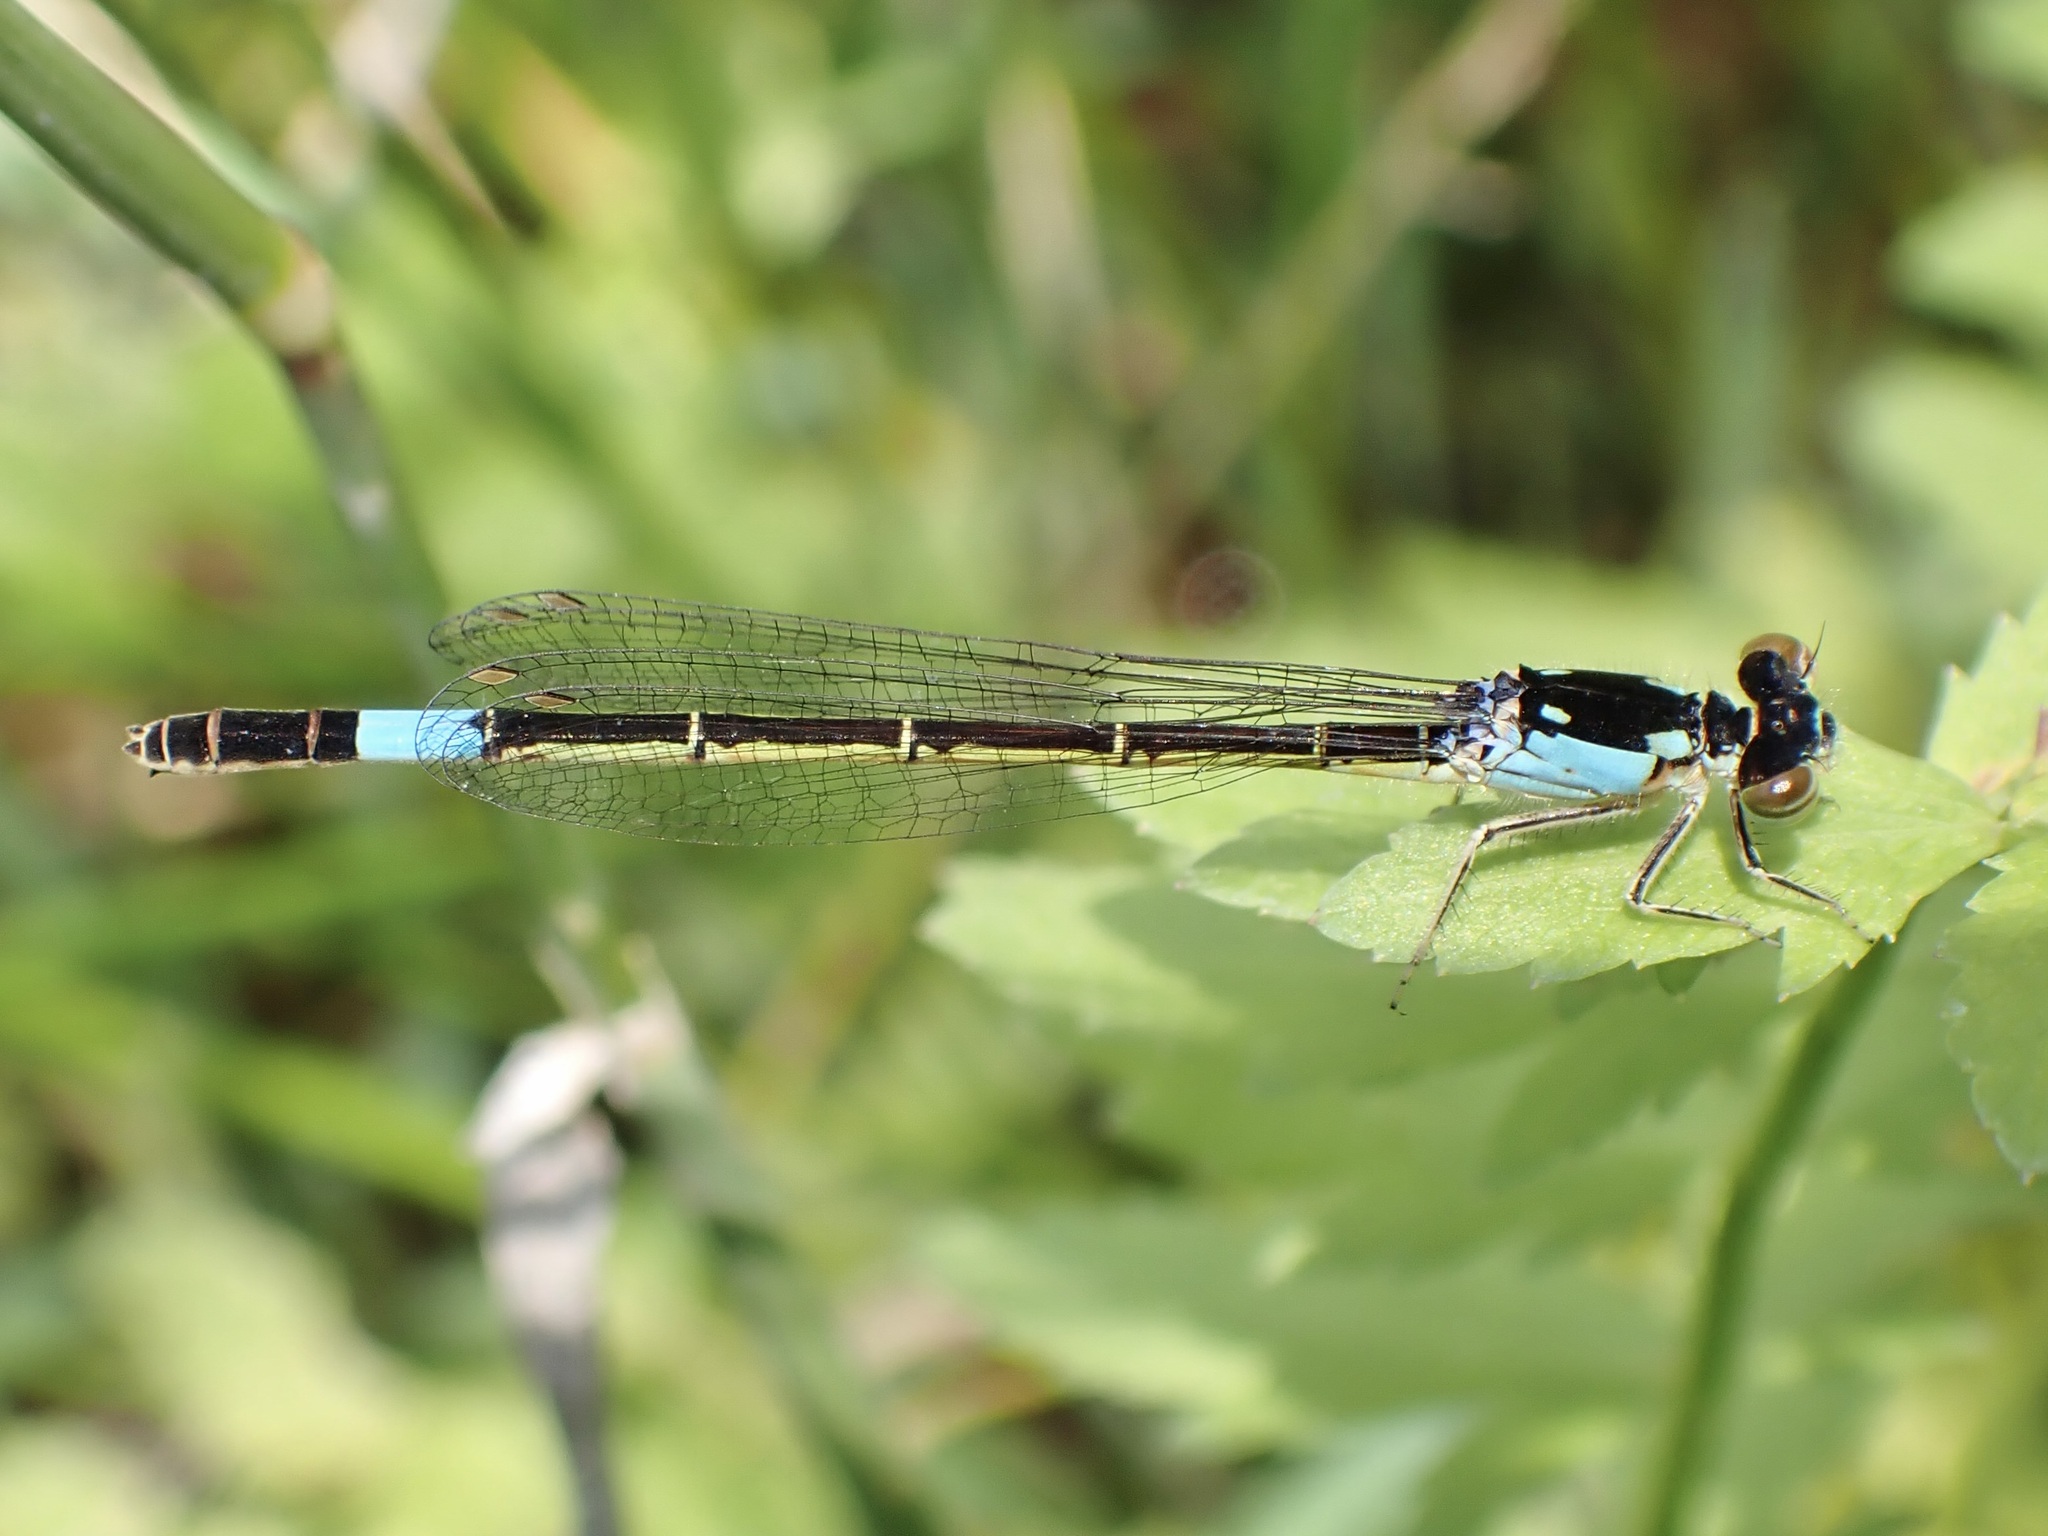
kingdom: Animalia
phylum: Arthropoda
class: Insecta
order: Odonata
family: Coenagrionidae
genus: Hesperagrion
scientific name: Hesperagrion heterodoxum
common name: Painted damsel
